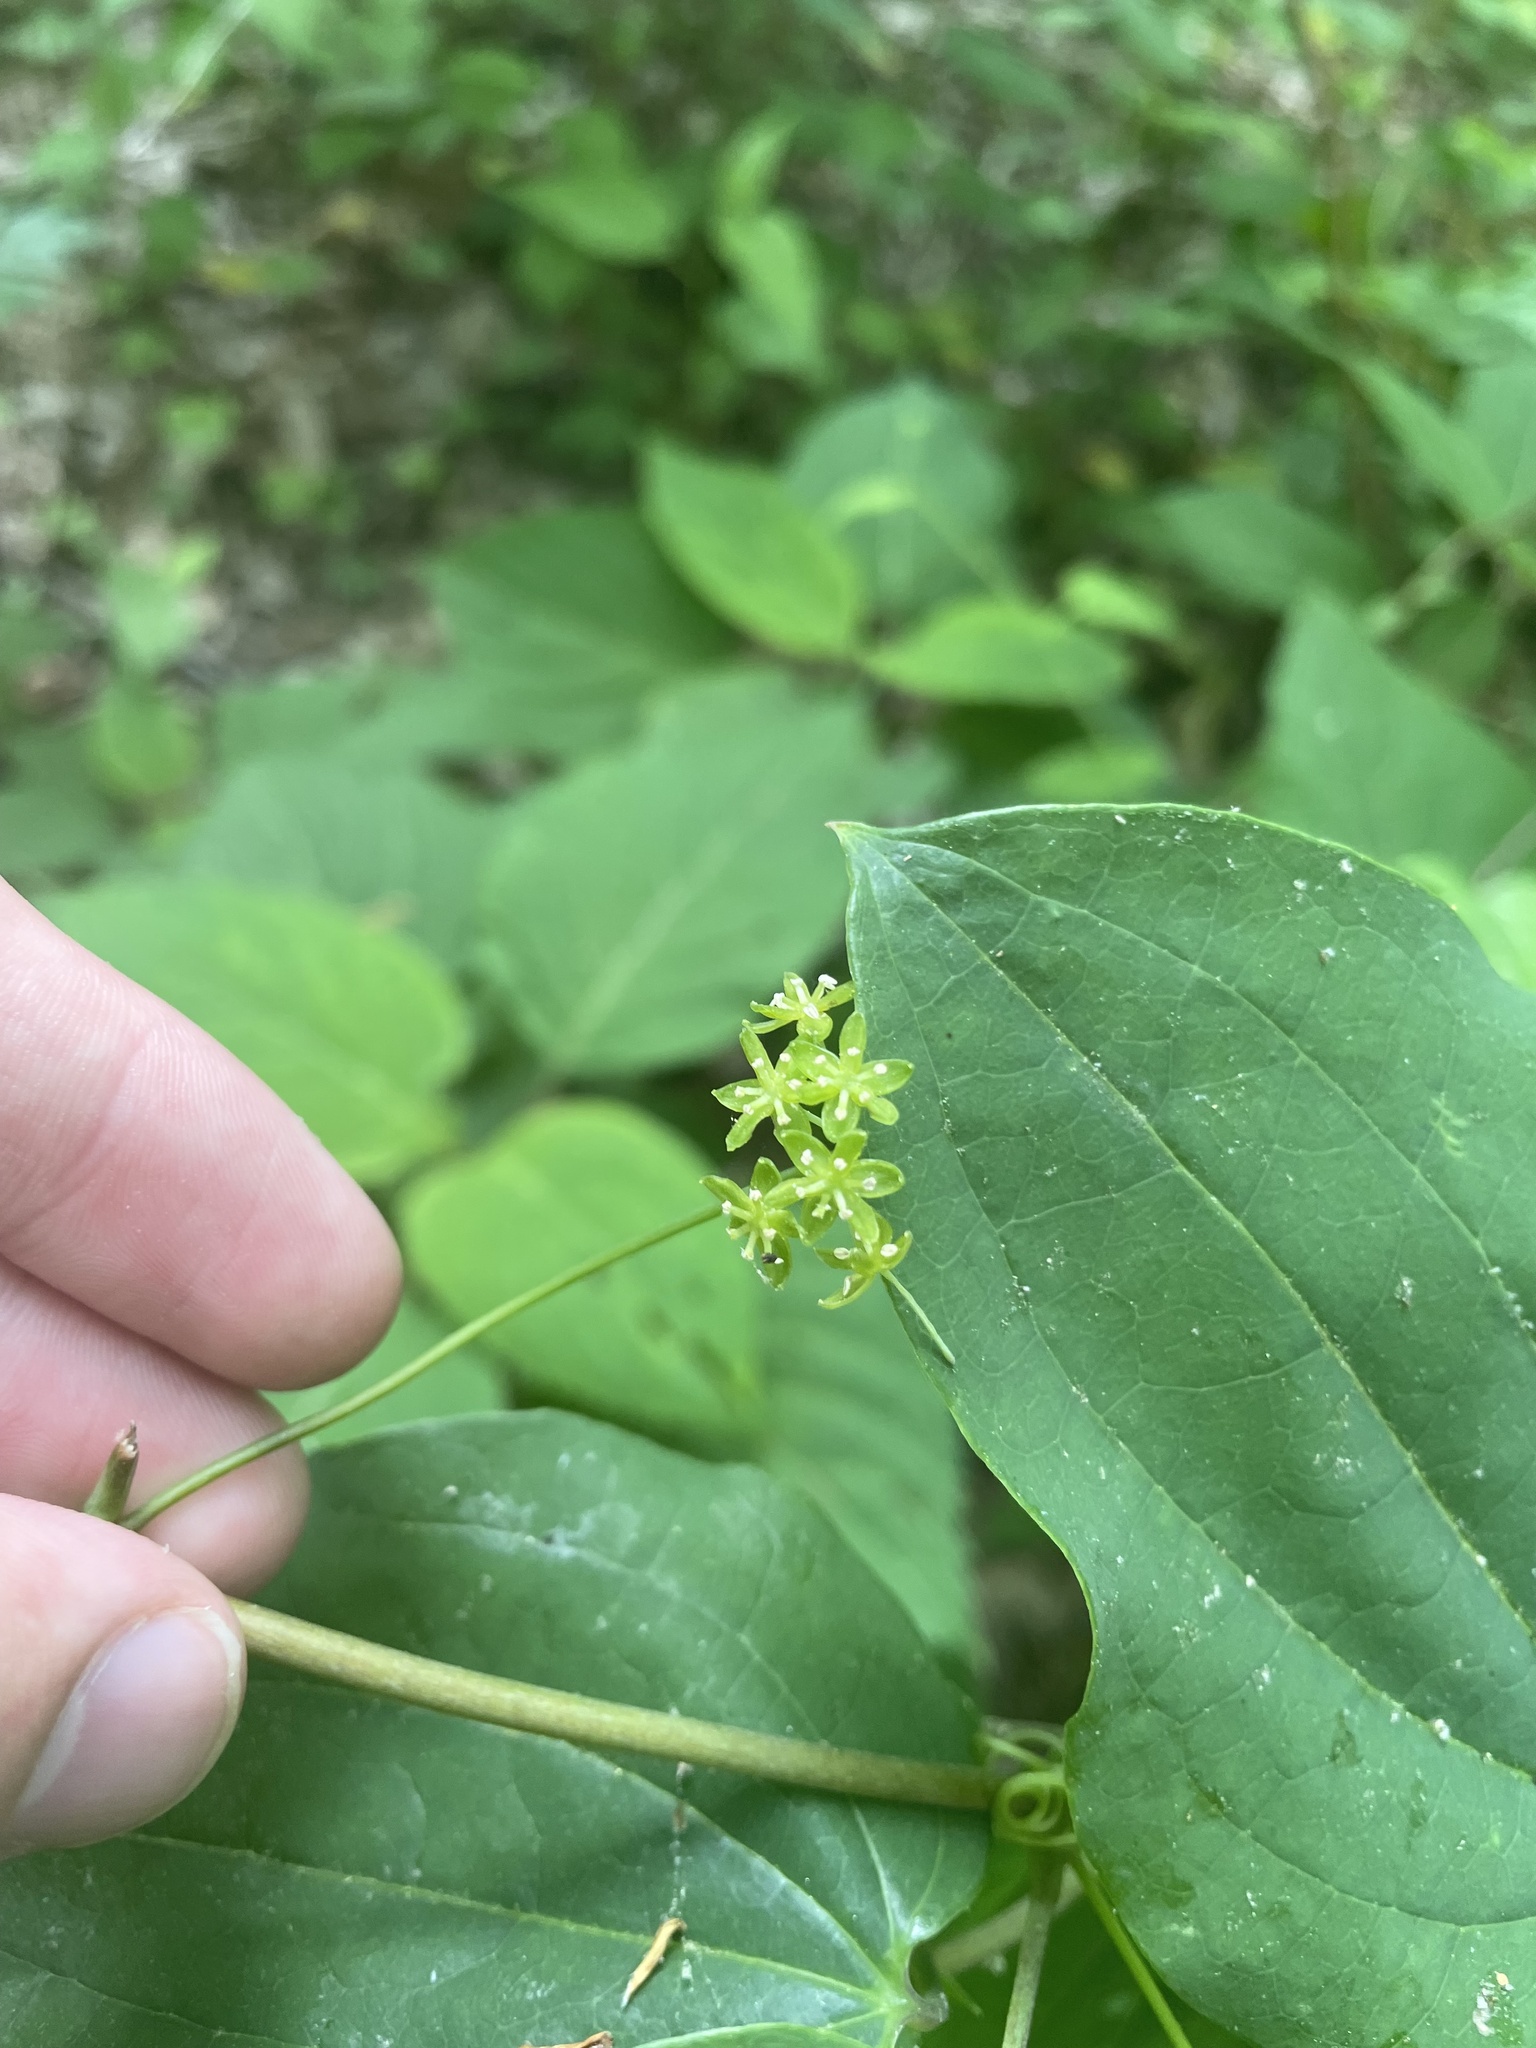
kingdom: Plantae
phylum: Tracheophyta
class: Liliopsida
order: Liliales
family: Smilacaceae
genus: Smilax
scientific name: Smilax herbacea
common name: Jacob's-ladder
